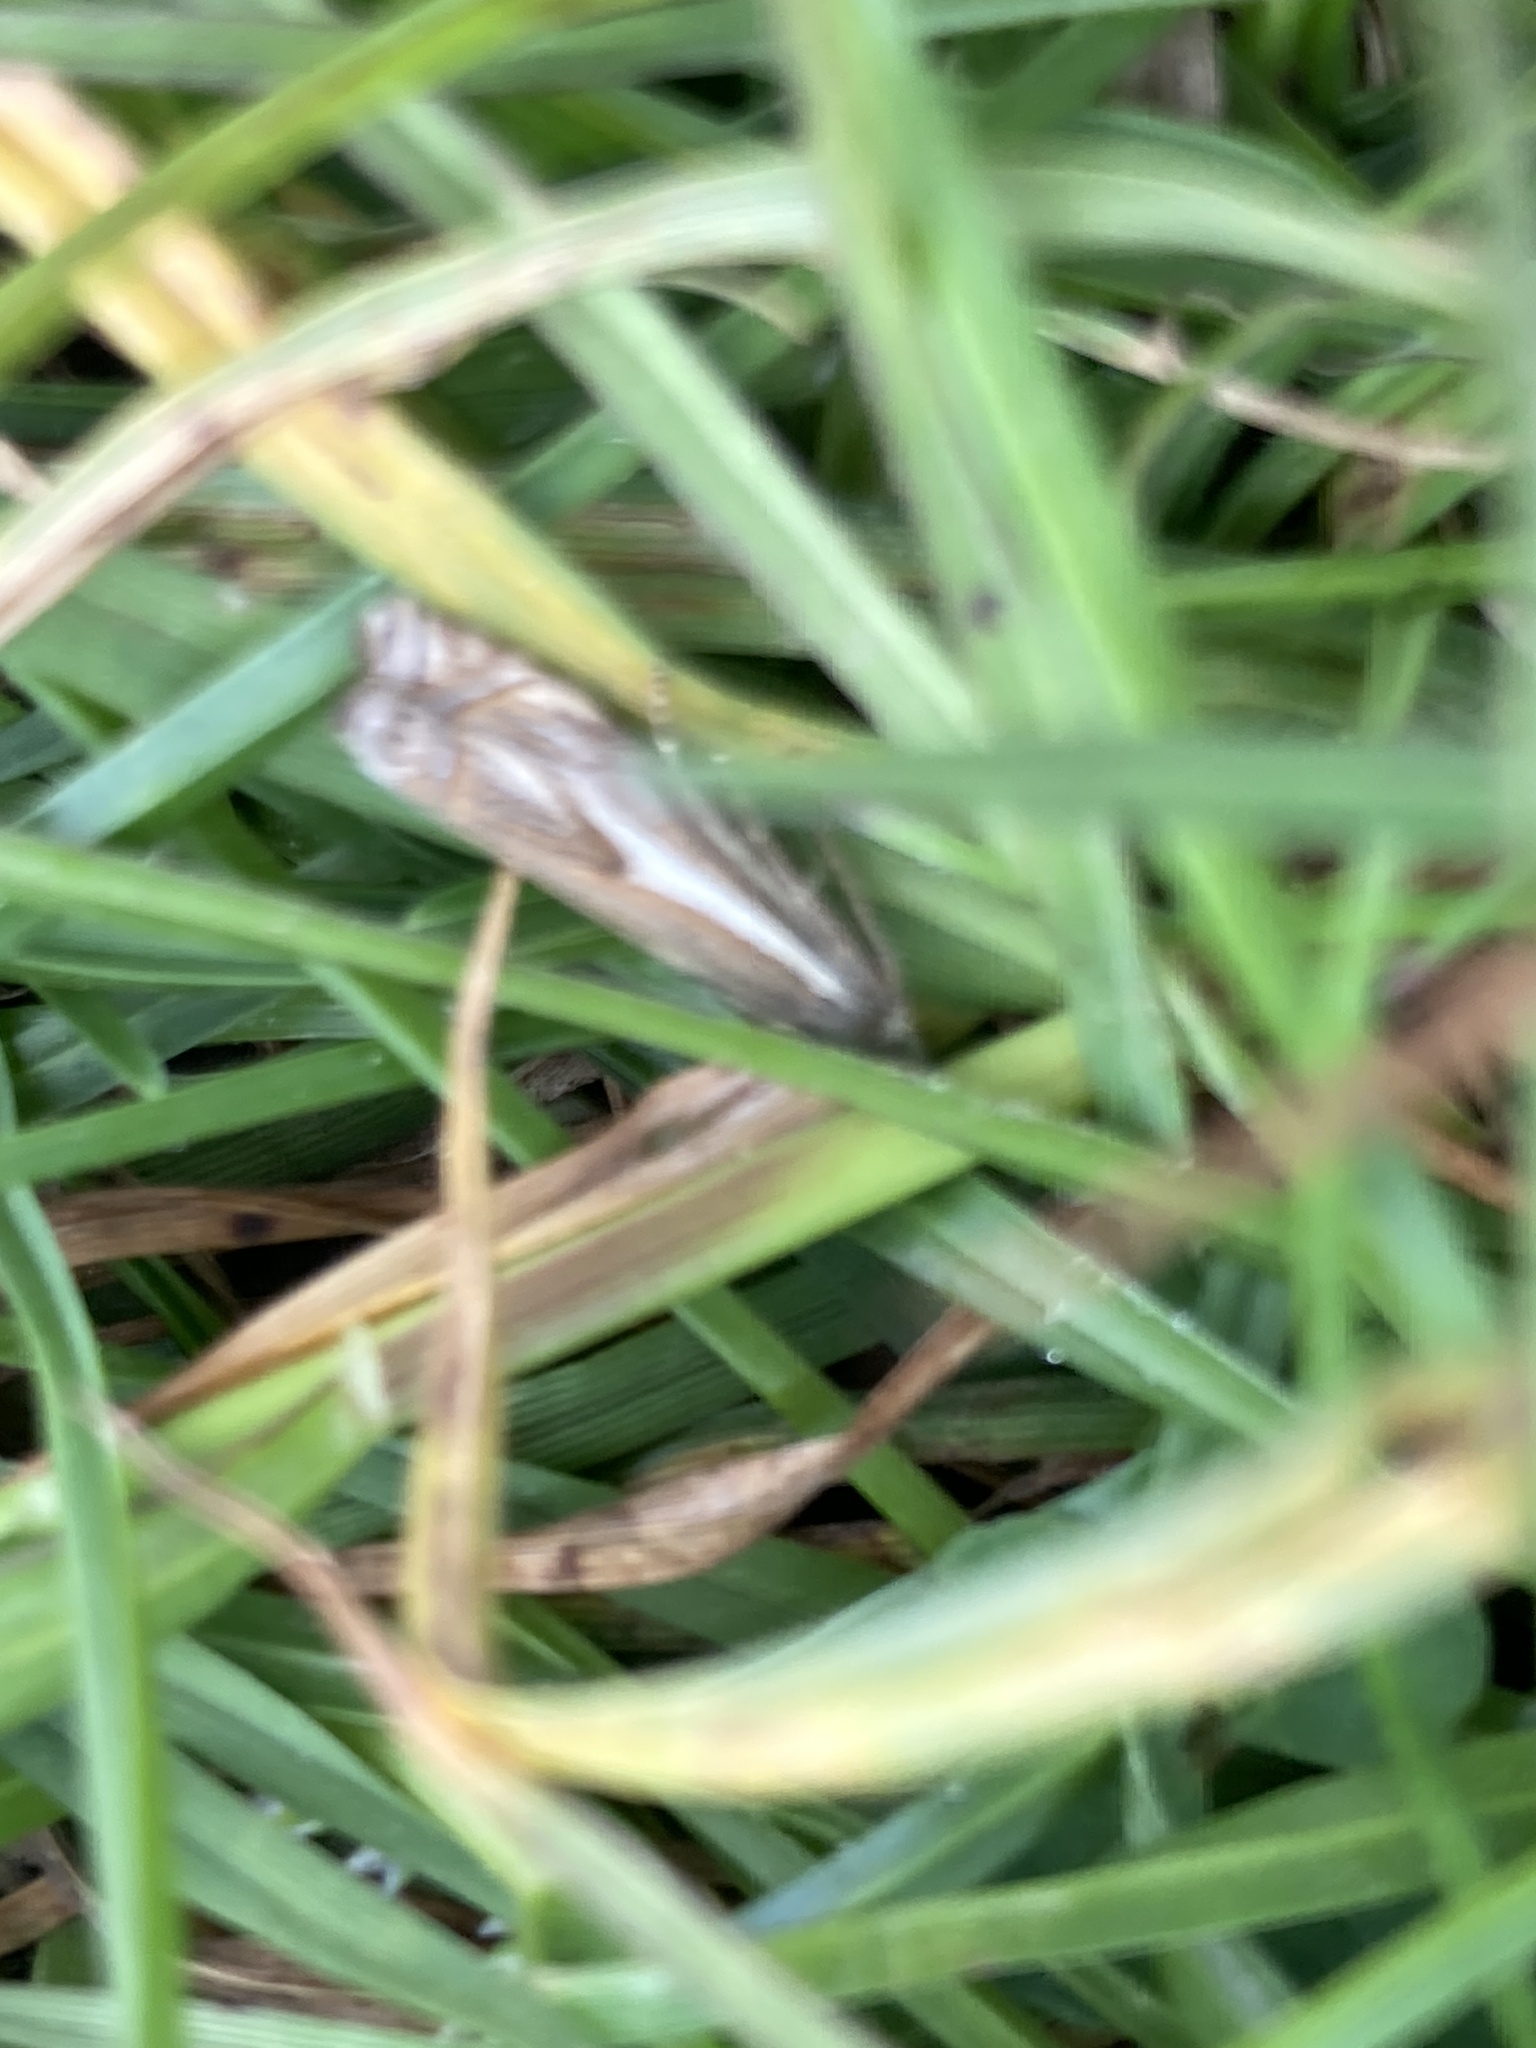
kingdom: Animalia
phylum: Arthropoda
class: Insecta
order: Lepidoptera
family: Crambidae
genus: Crambus
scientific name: Crambus nemorella
